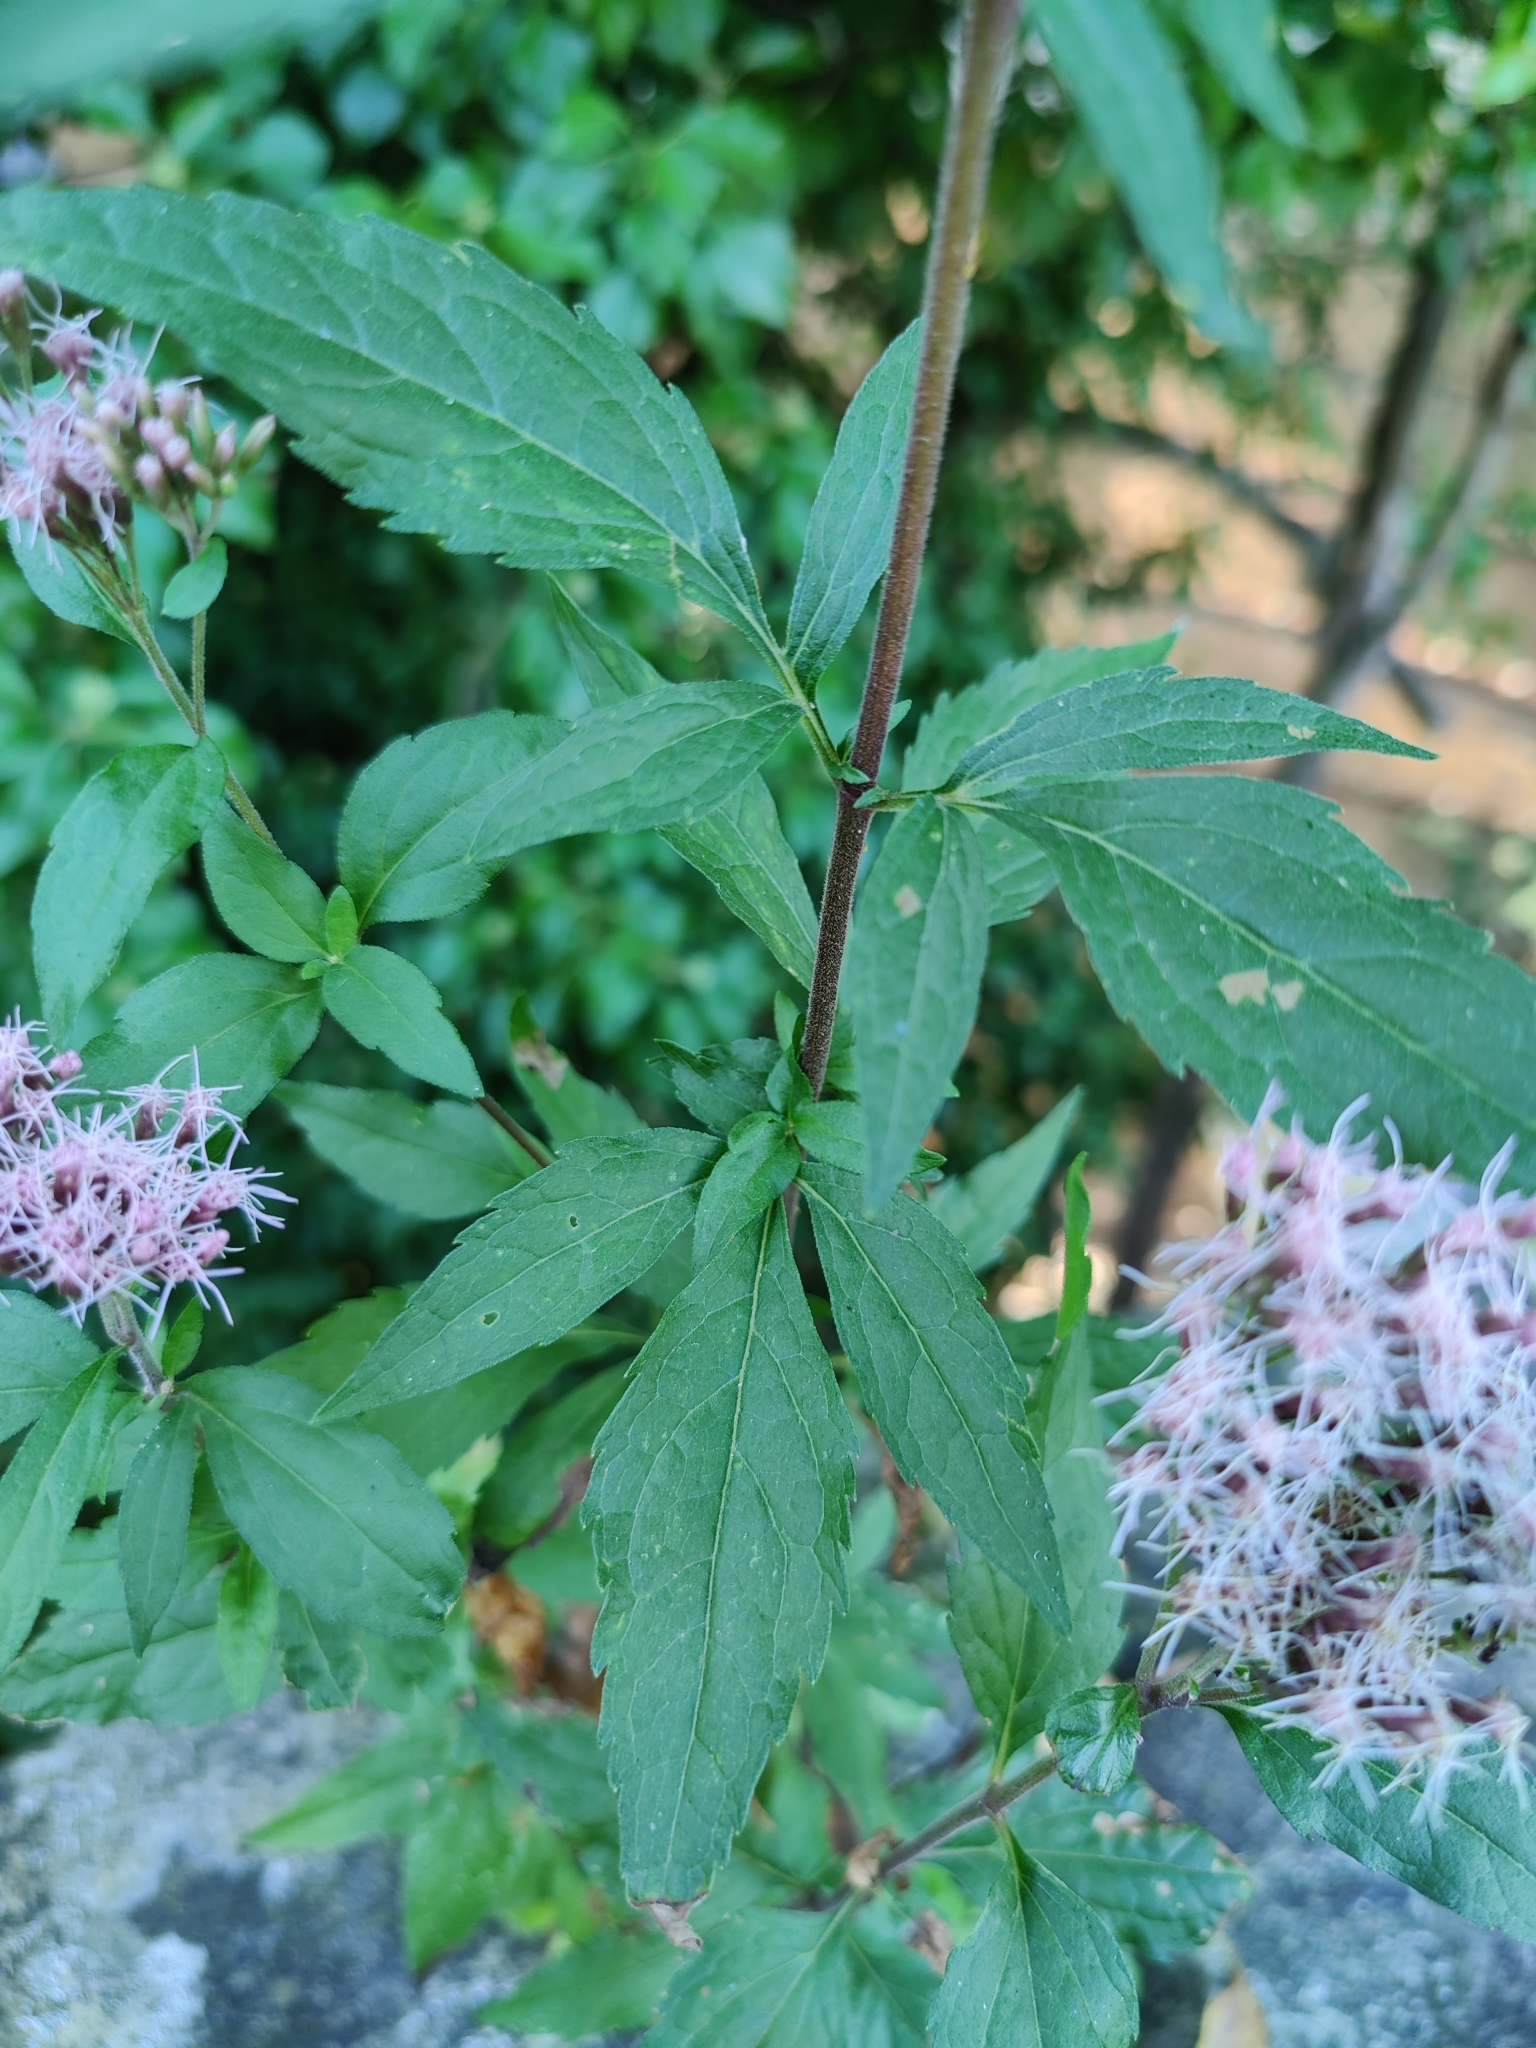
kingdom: Plantae
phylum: Tracheophyta
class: Magnoliopsida
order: Asterales
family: Asteraceae
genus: Eupatorium
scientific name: Eupatorium cannabinum
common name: Hemp-agrimony
